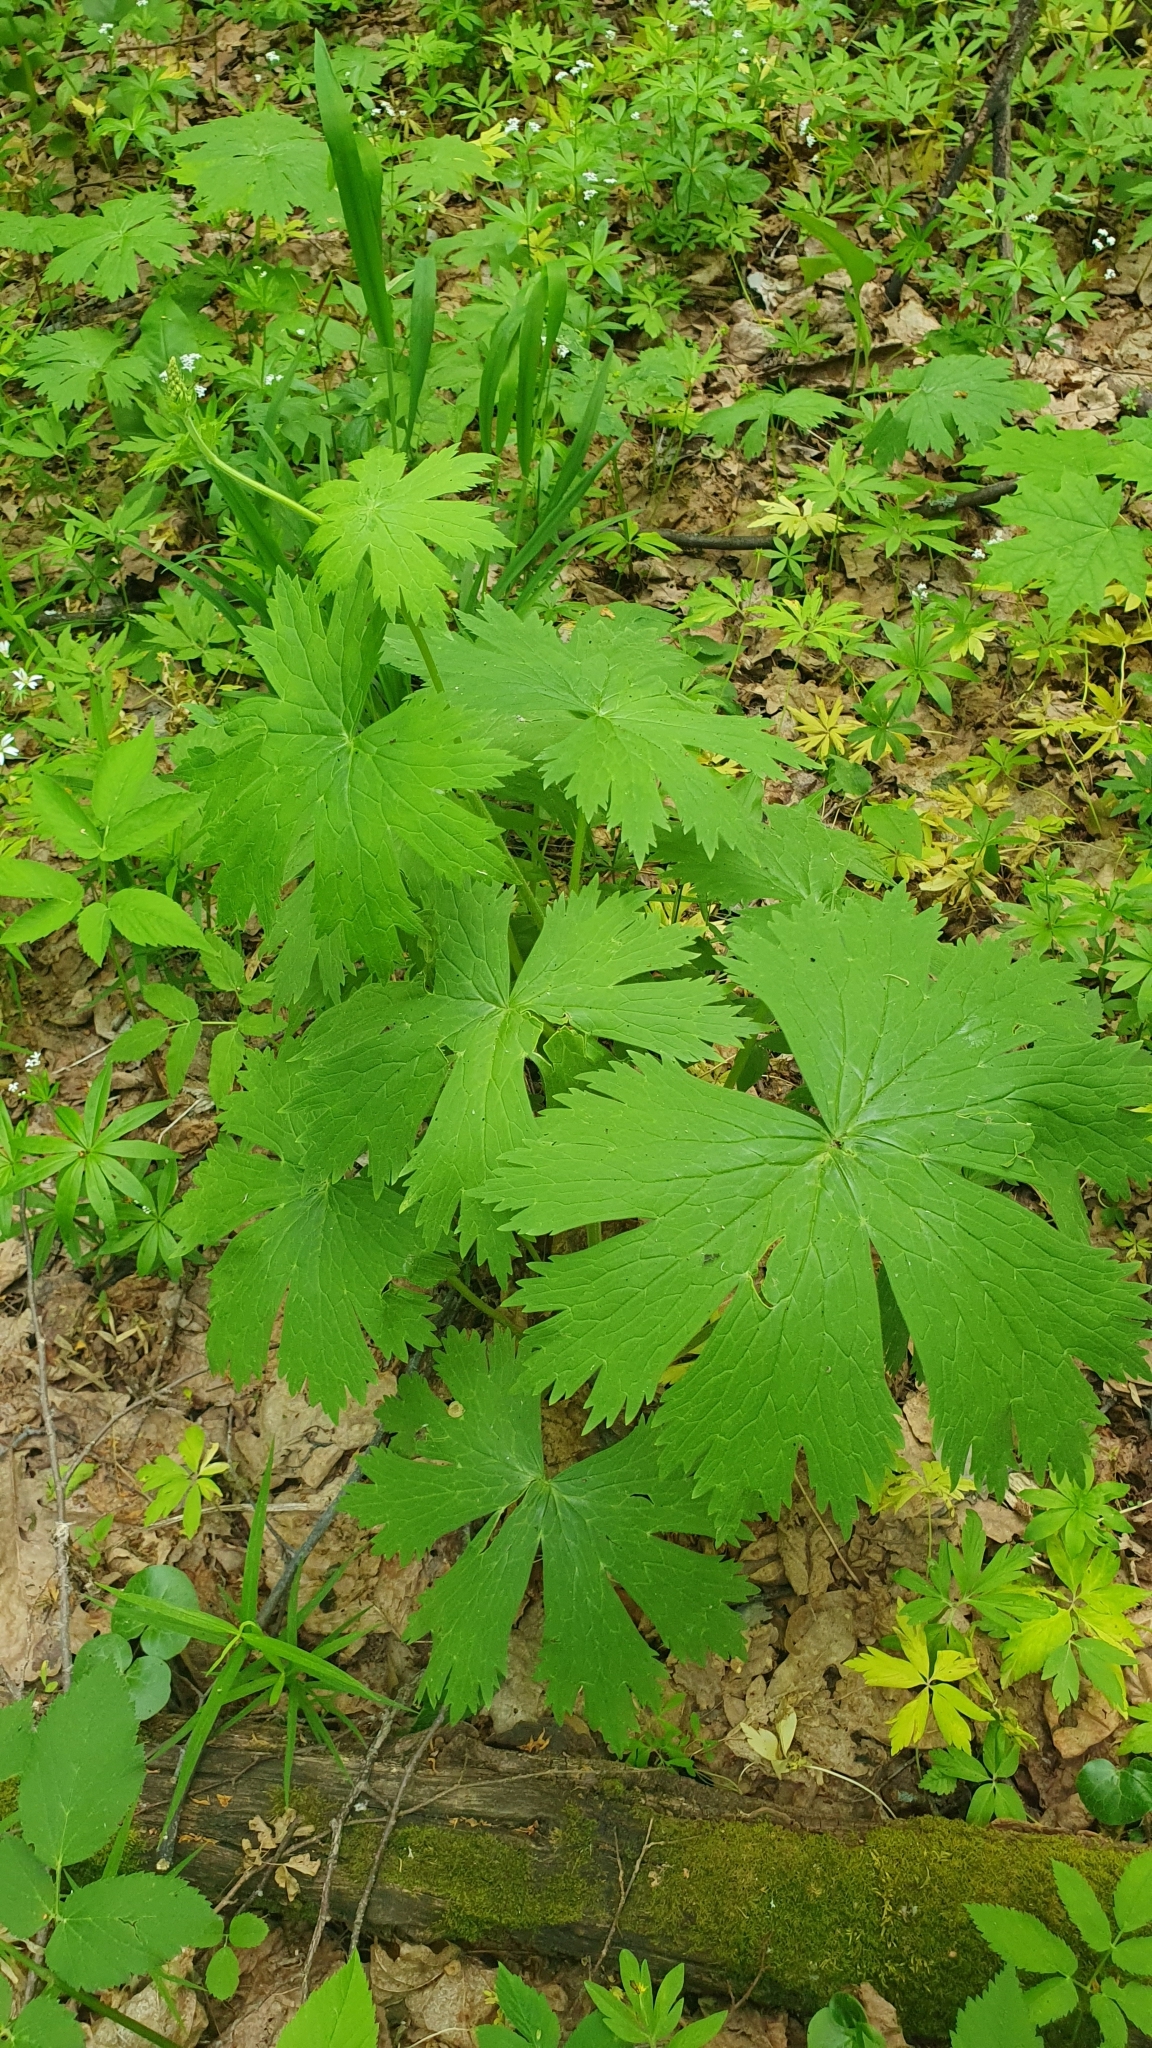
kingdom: Plantae
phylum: Tracheophyta
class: Magnoliopsida
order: Ranunculales
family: Ranunculaceae
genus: Aconitum
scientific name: Aconitum septentrionale
